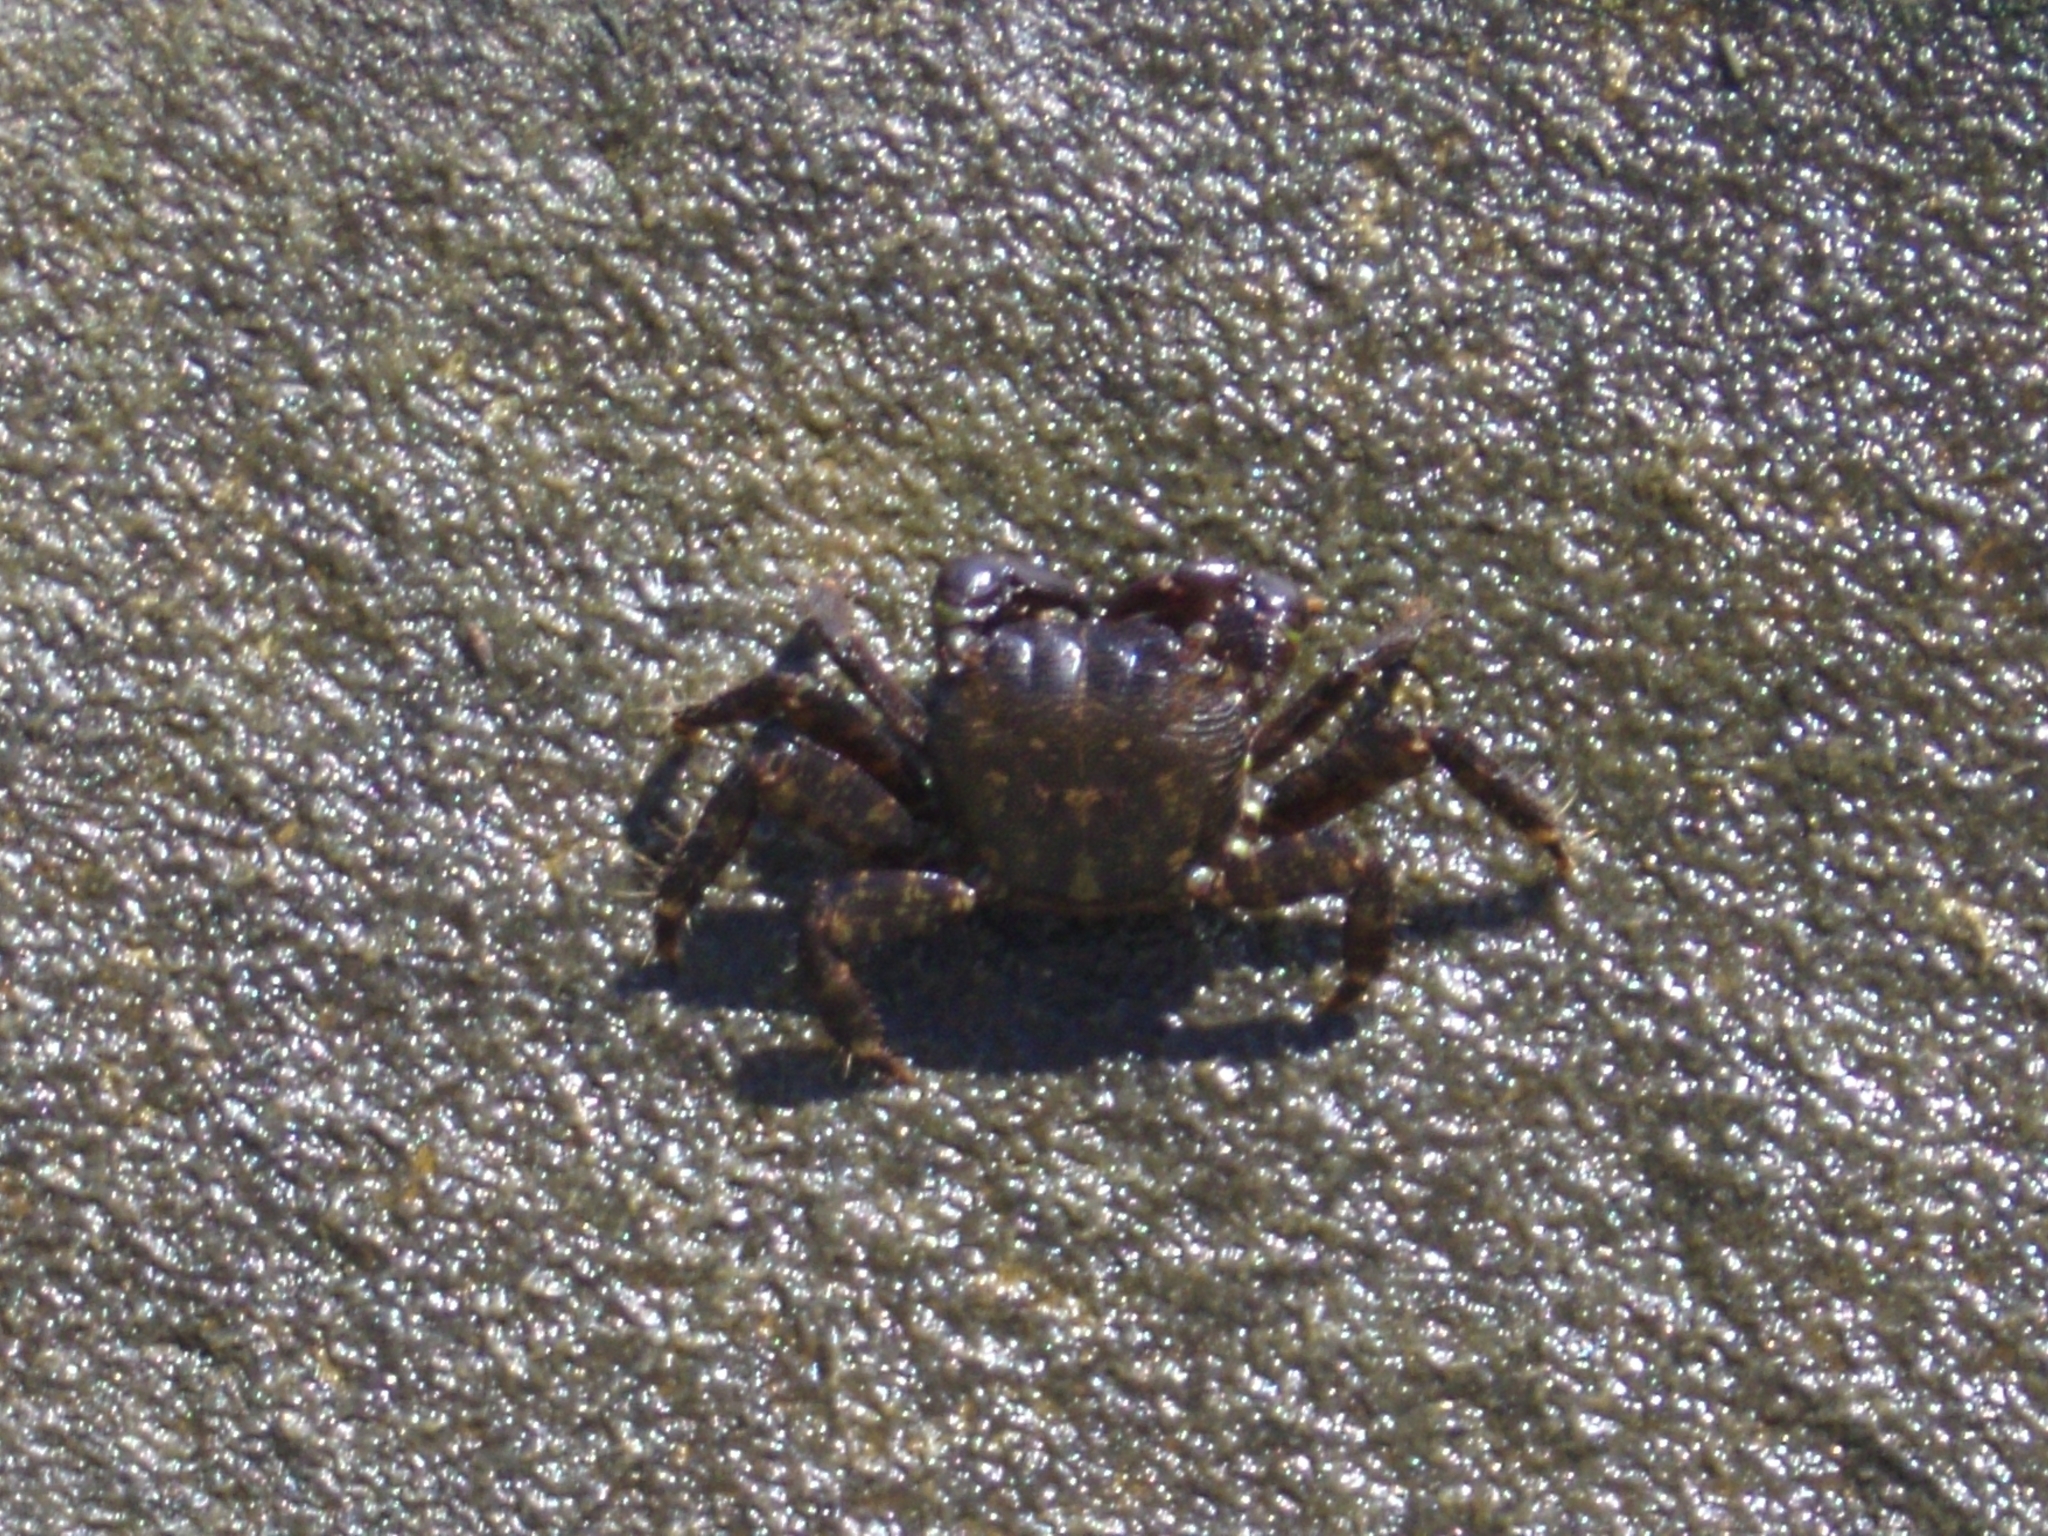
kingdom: Animalia
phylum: Arthropoda
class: Malacostraca
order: Decapoda
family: Grapsidae
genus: Pachygrapsus
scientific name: Pachygrapsus marmoratus
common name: Marbled rock crab
